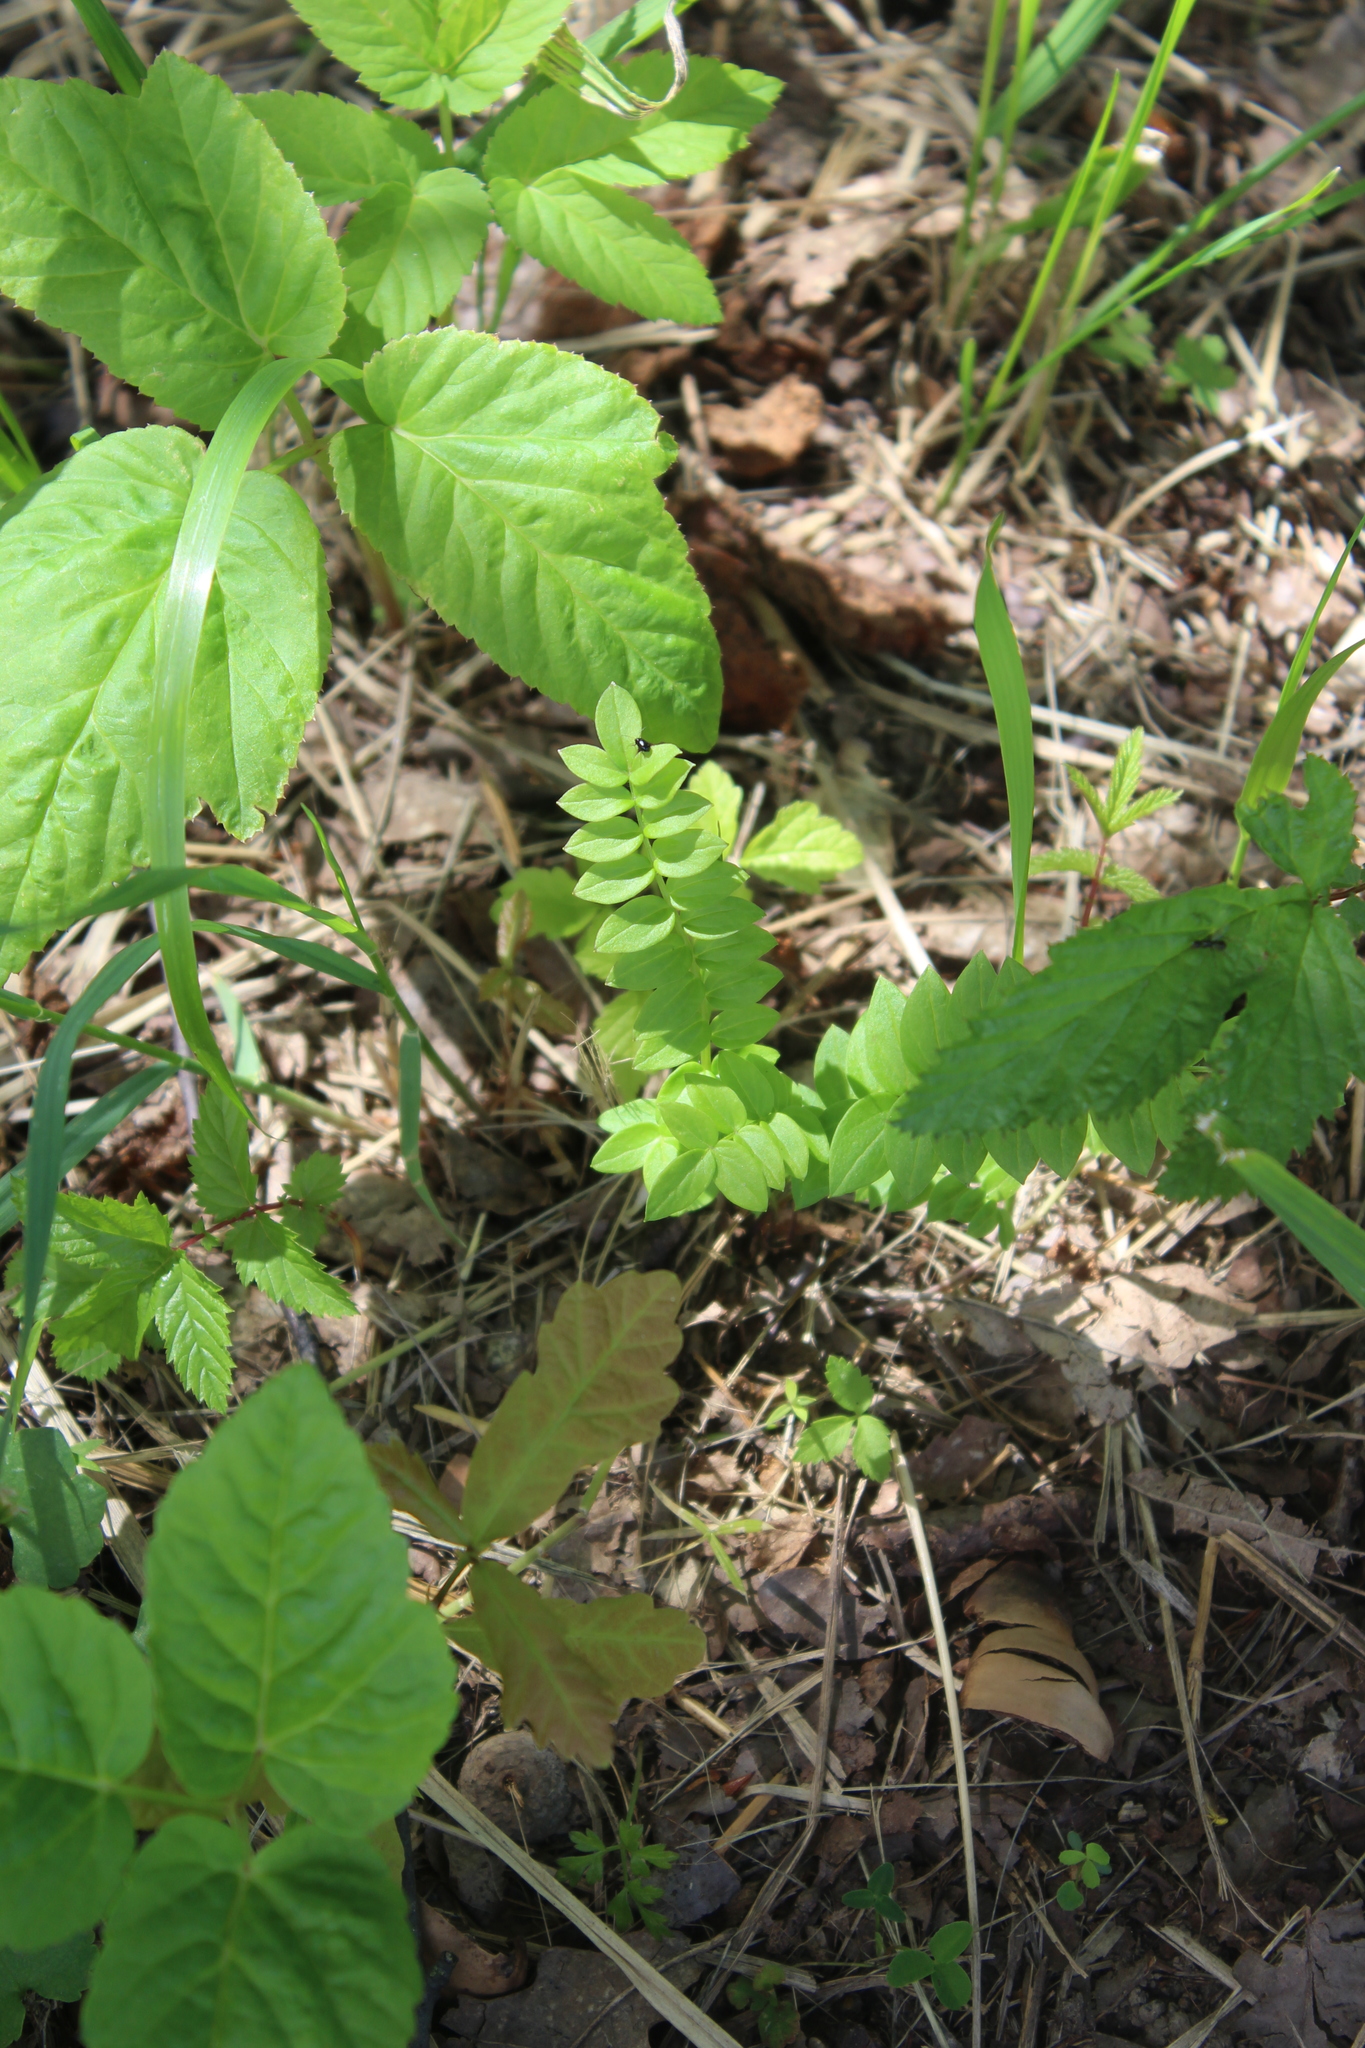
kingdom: Plantae
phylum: Tracheophyta
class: Magnoliopsida
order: Ericales
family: Polemoniaceae
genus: Polemonium
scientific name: Polemonium caeruleum
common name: Jacob's-ladder
